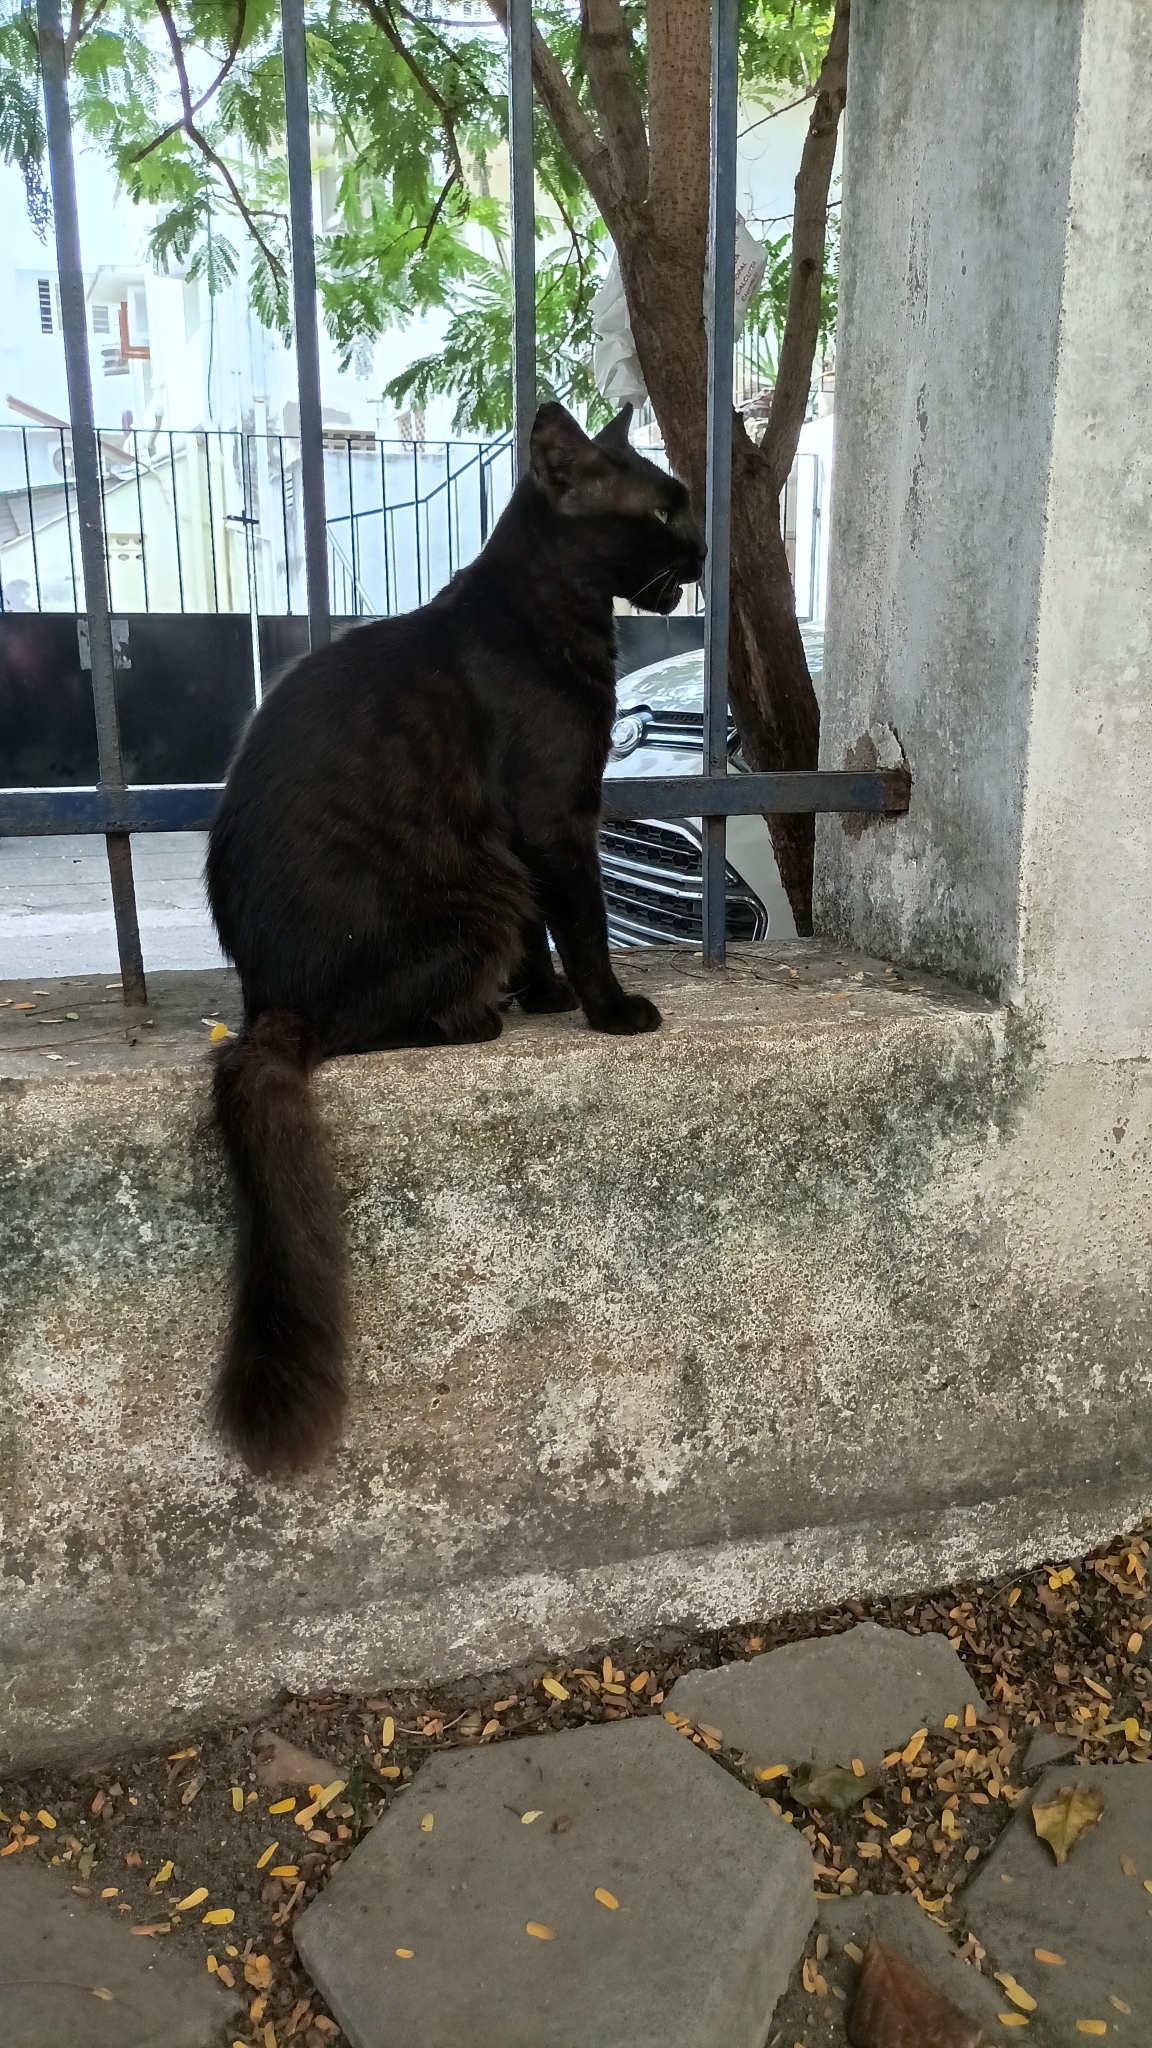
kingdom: Animalia
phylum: Chordata
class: Mammalia
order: Carnivora
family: Felidae
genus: Felis
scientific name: Felis catus
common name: Domestic cat
